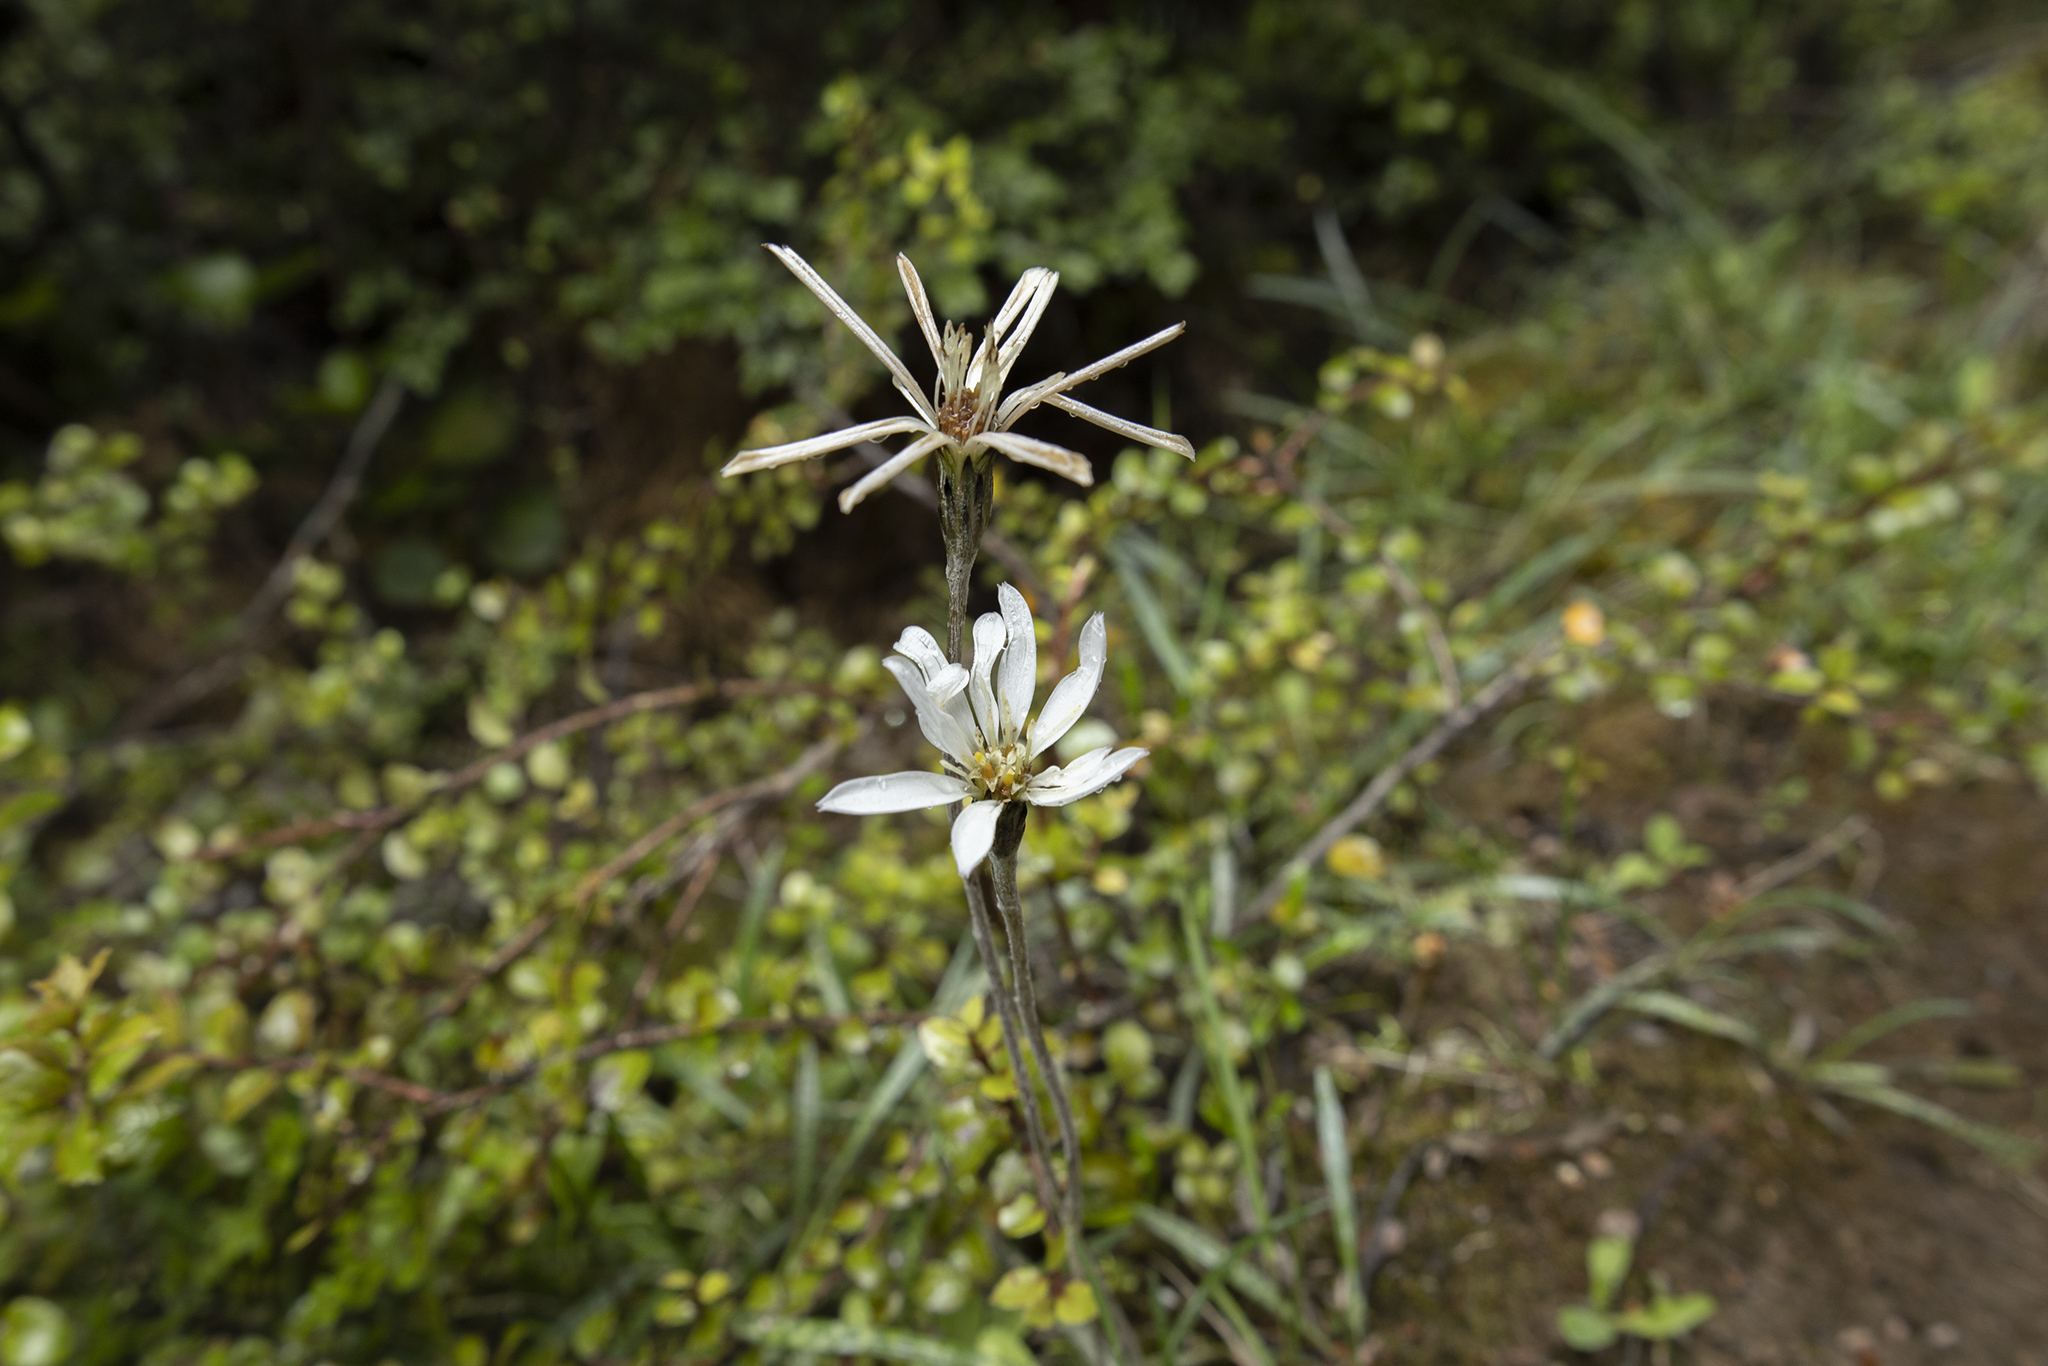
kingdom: Plantae
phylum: Tracheophyta
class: Magnoliopsida
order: Asterales
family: Asteraceae
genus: Celmisia
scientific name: Celmisia gracilenta
